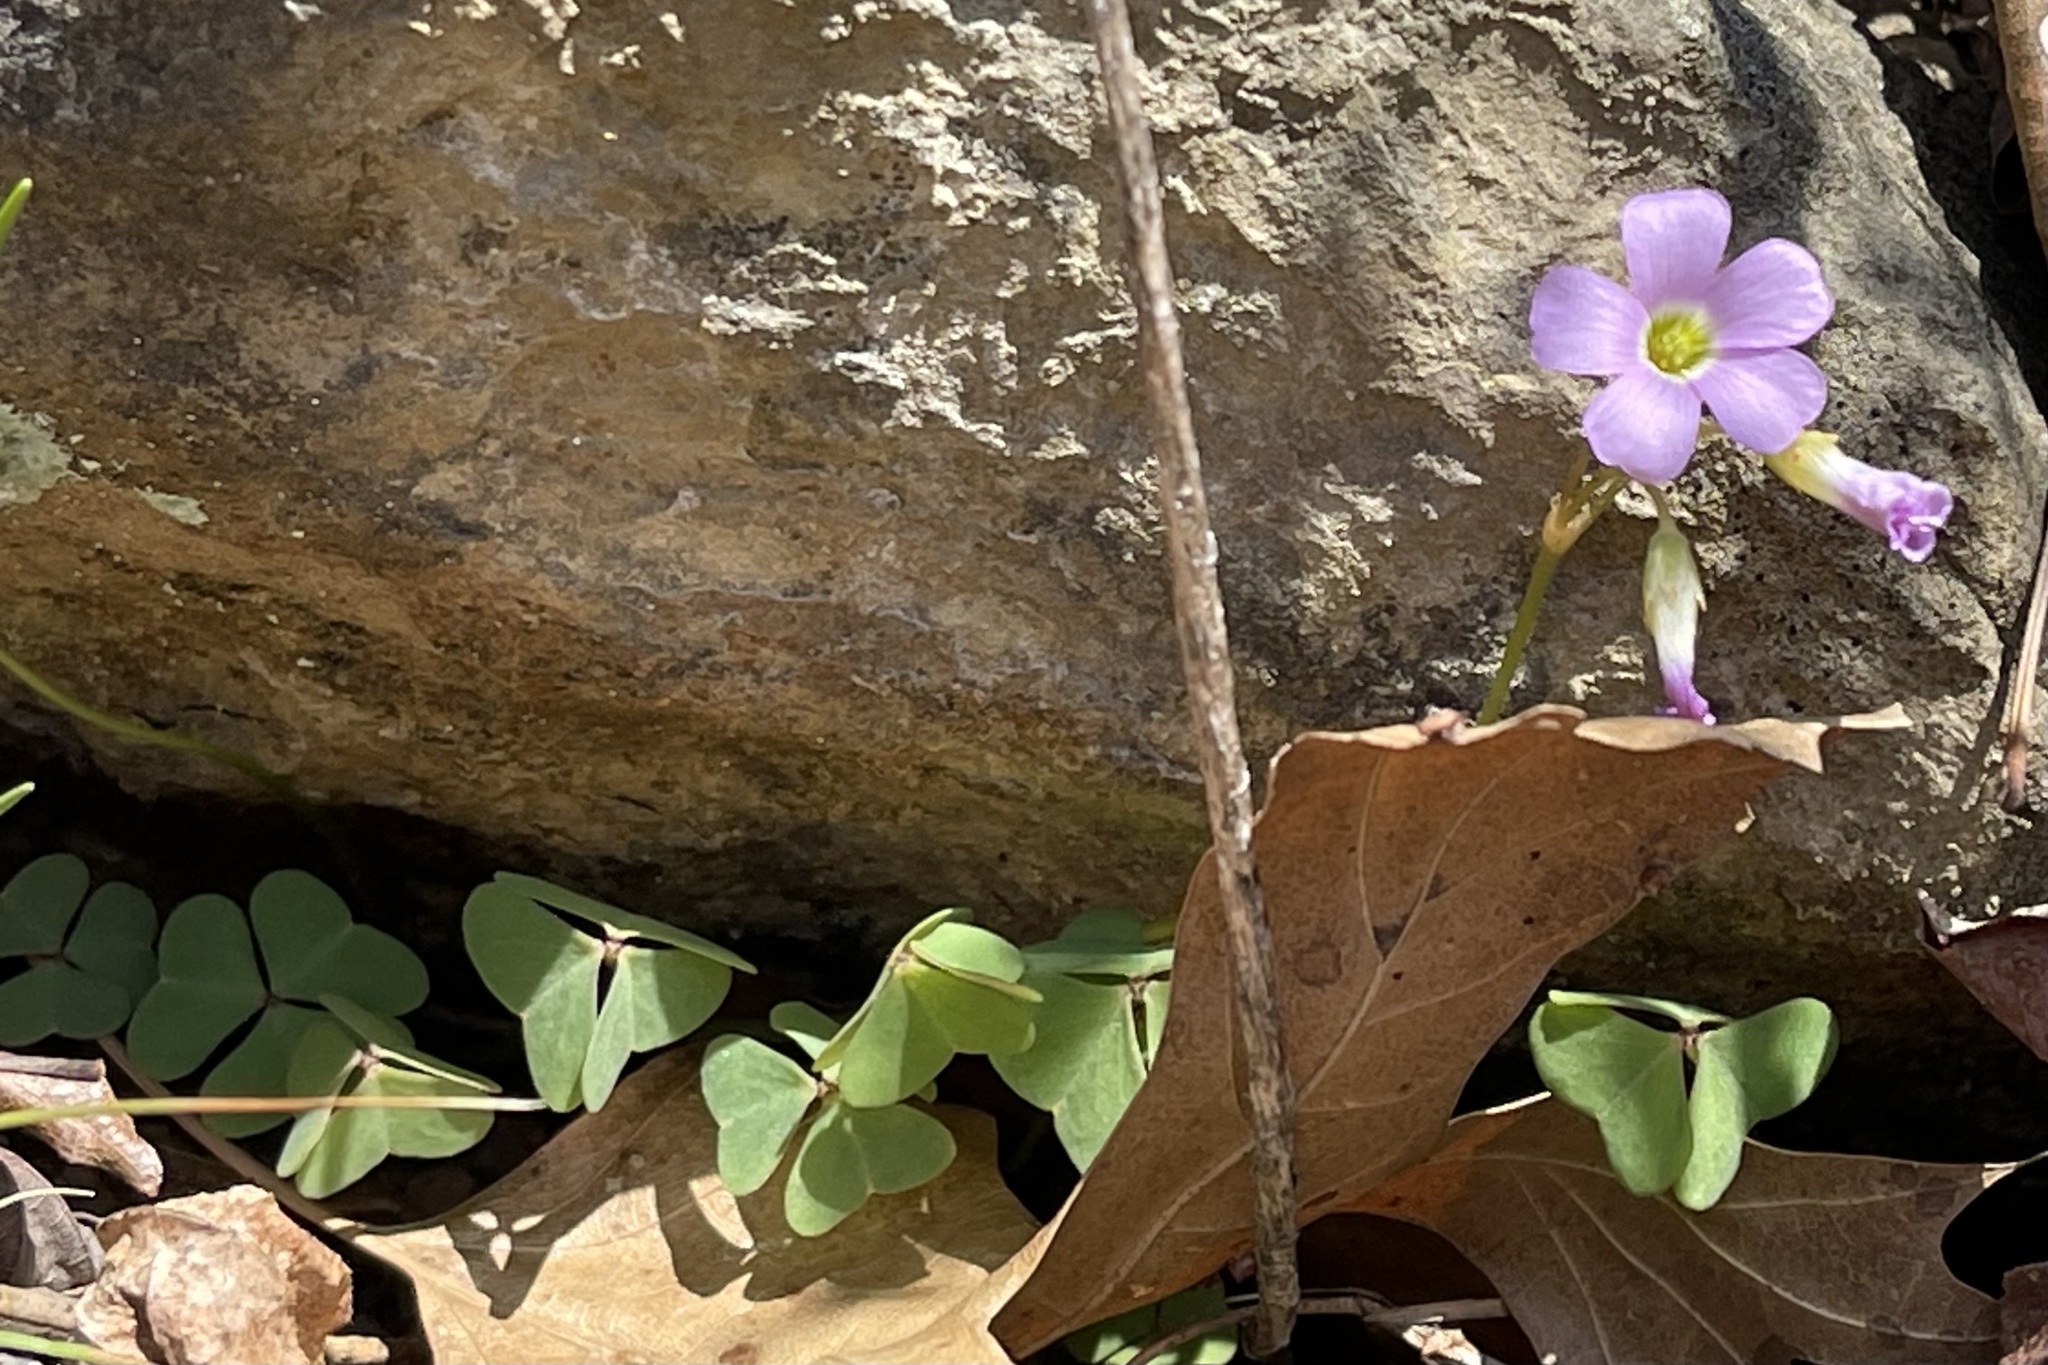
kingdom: Plantae
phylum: Tracheophyta
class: Magnoliopsida
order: Oxalidales
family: Oxalidaceae
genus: Oxalis
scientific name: Oxalis violacea
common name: Violet wood-sorrel
